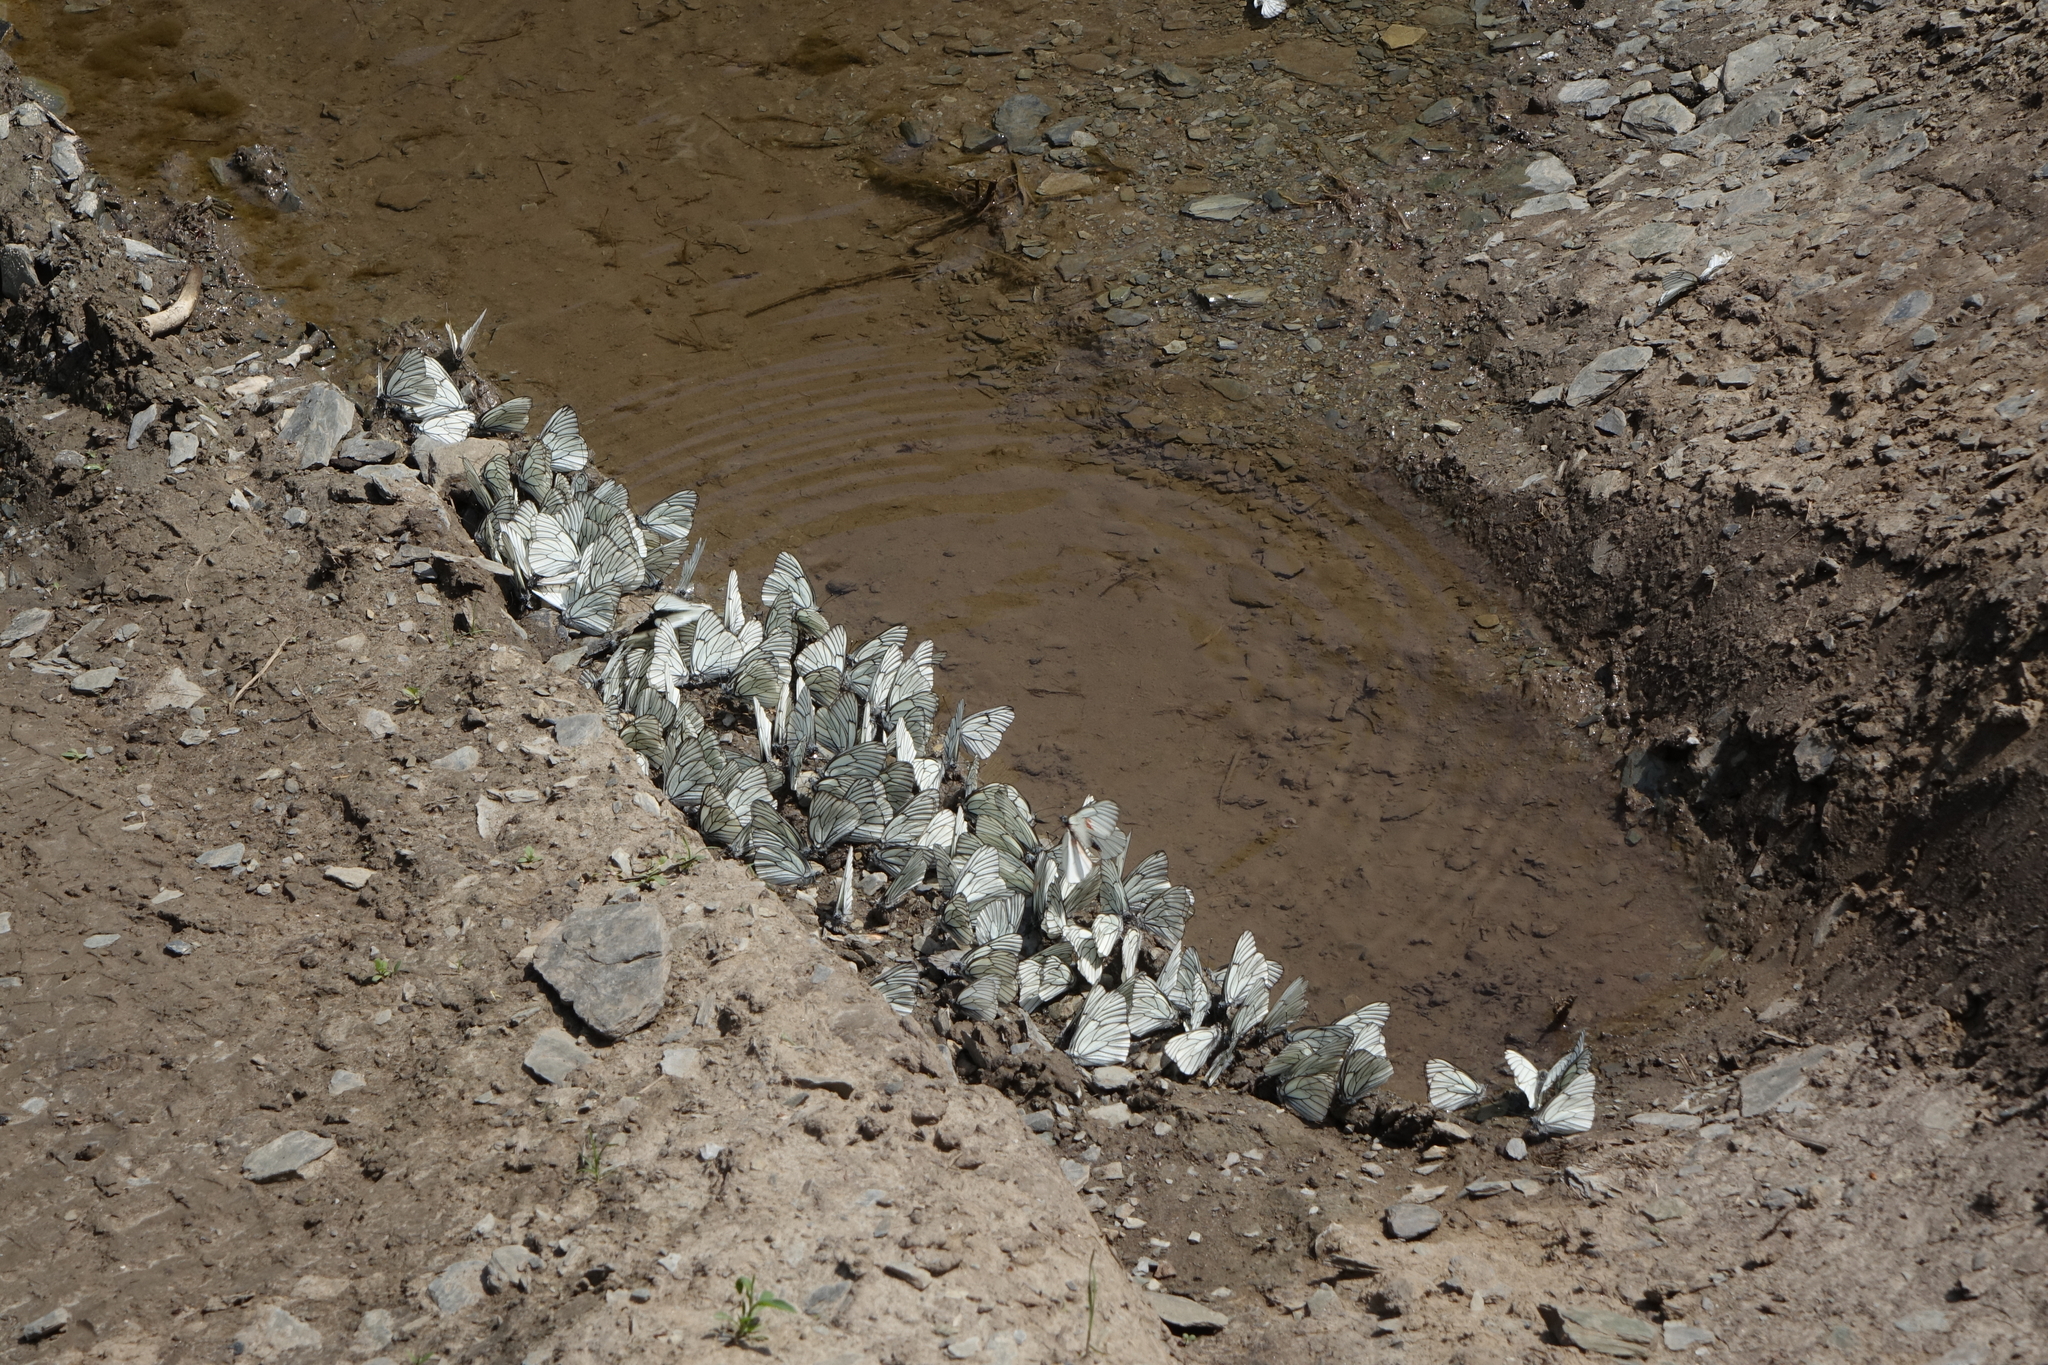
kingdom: Animalia
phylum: Arthropoda
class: Insecta
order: Lepidoptera
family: Pieridae
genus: Aporia
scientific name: Aporia crataegi
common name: Black-veined white
